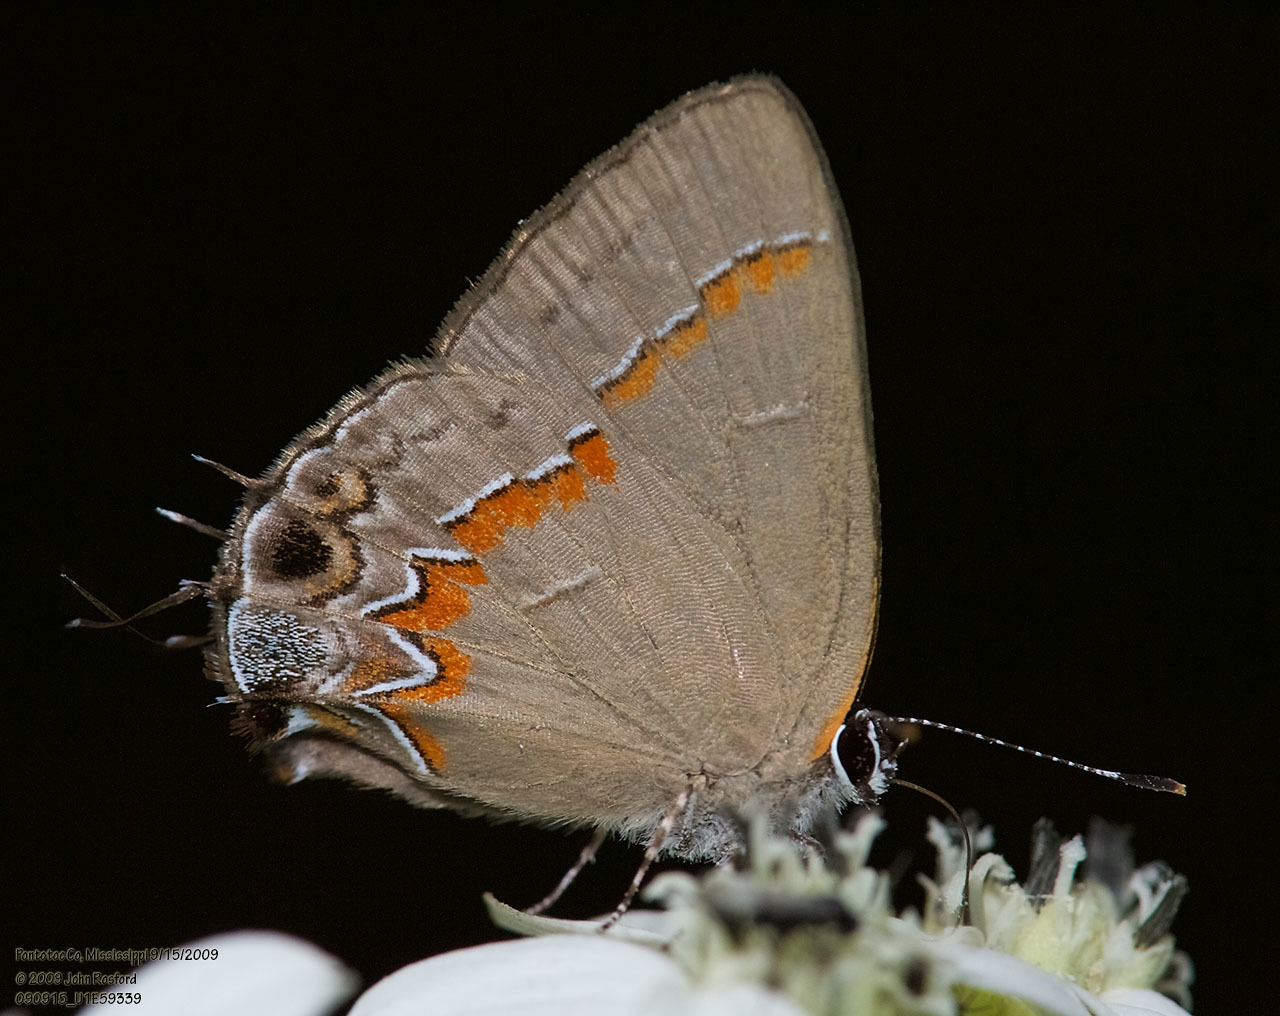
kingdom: Animalia
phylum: Arthropoda
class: Insecta
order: Lepidoptera
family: Lycaenidae
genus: Calycopis
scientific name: Calycopis cecrops
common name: Red-banded hairstreak
